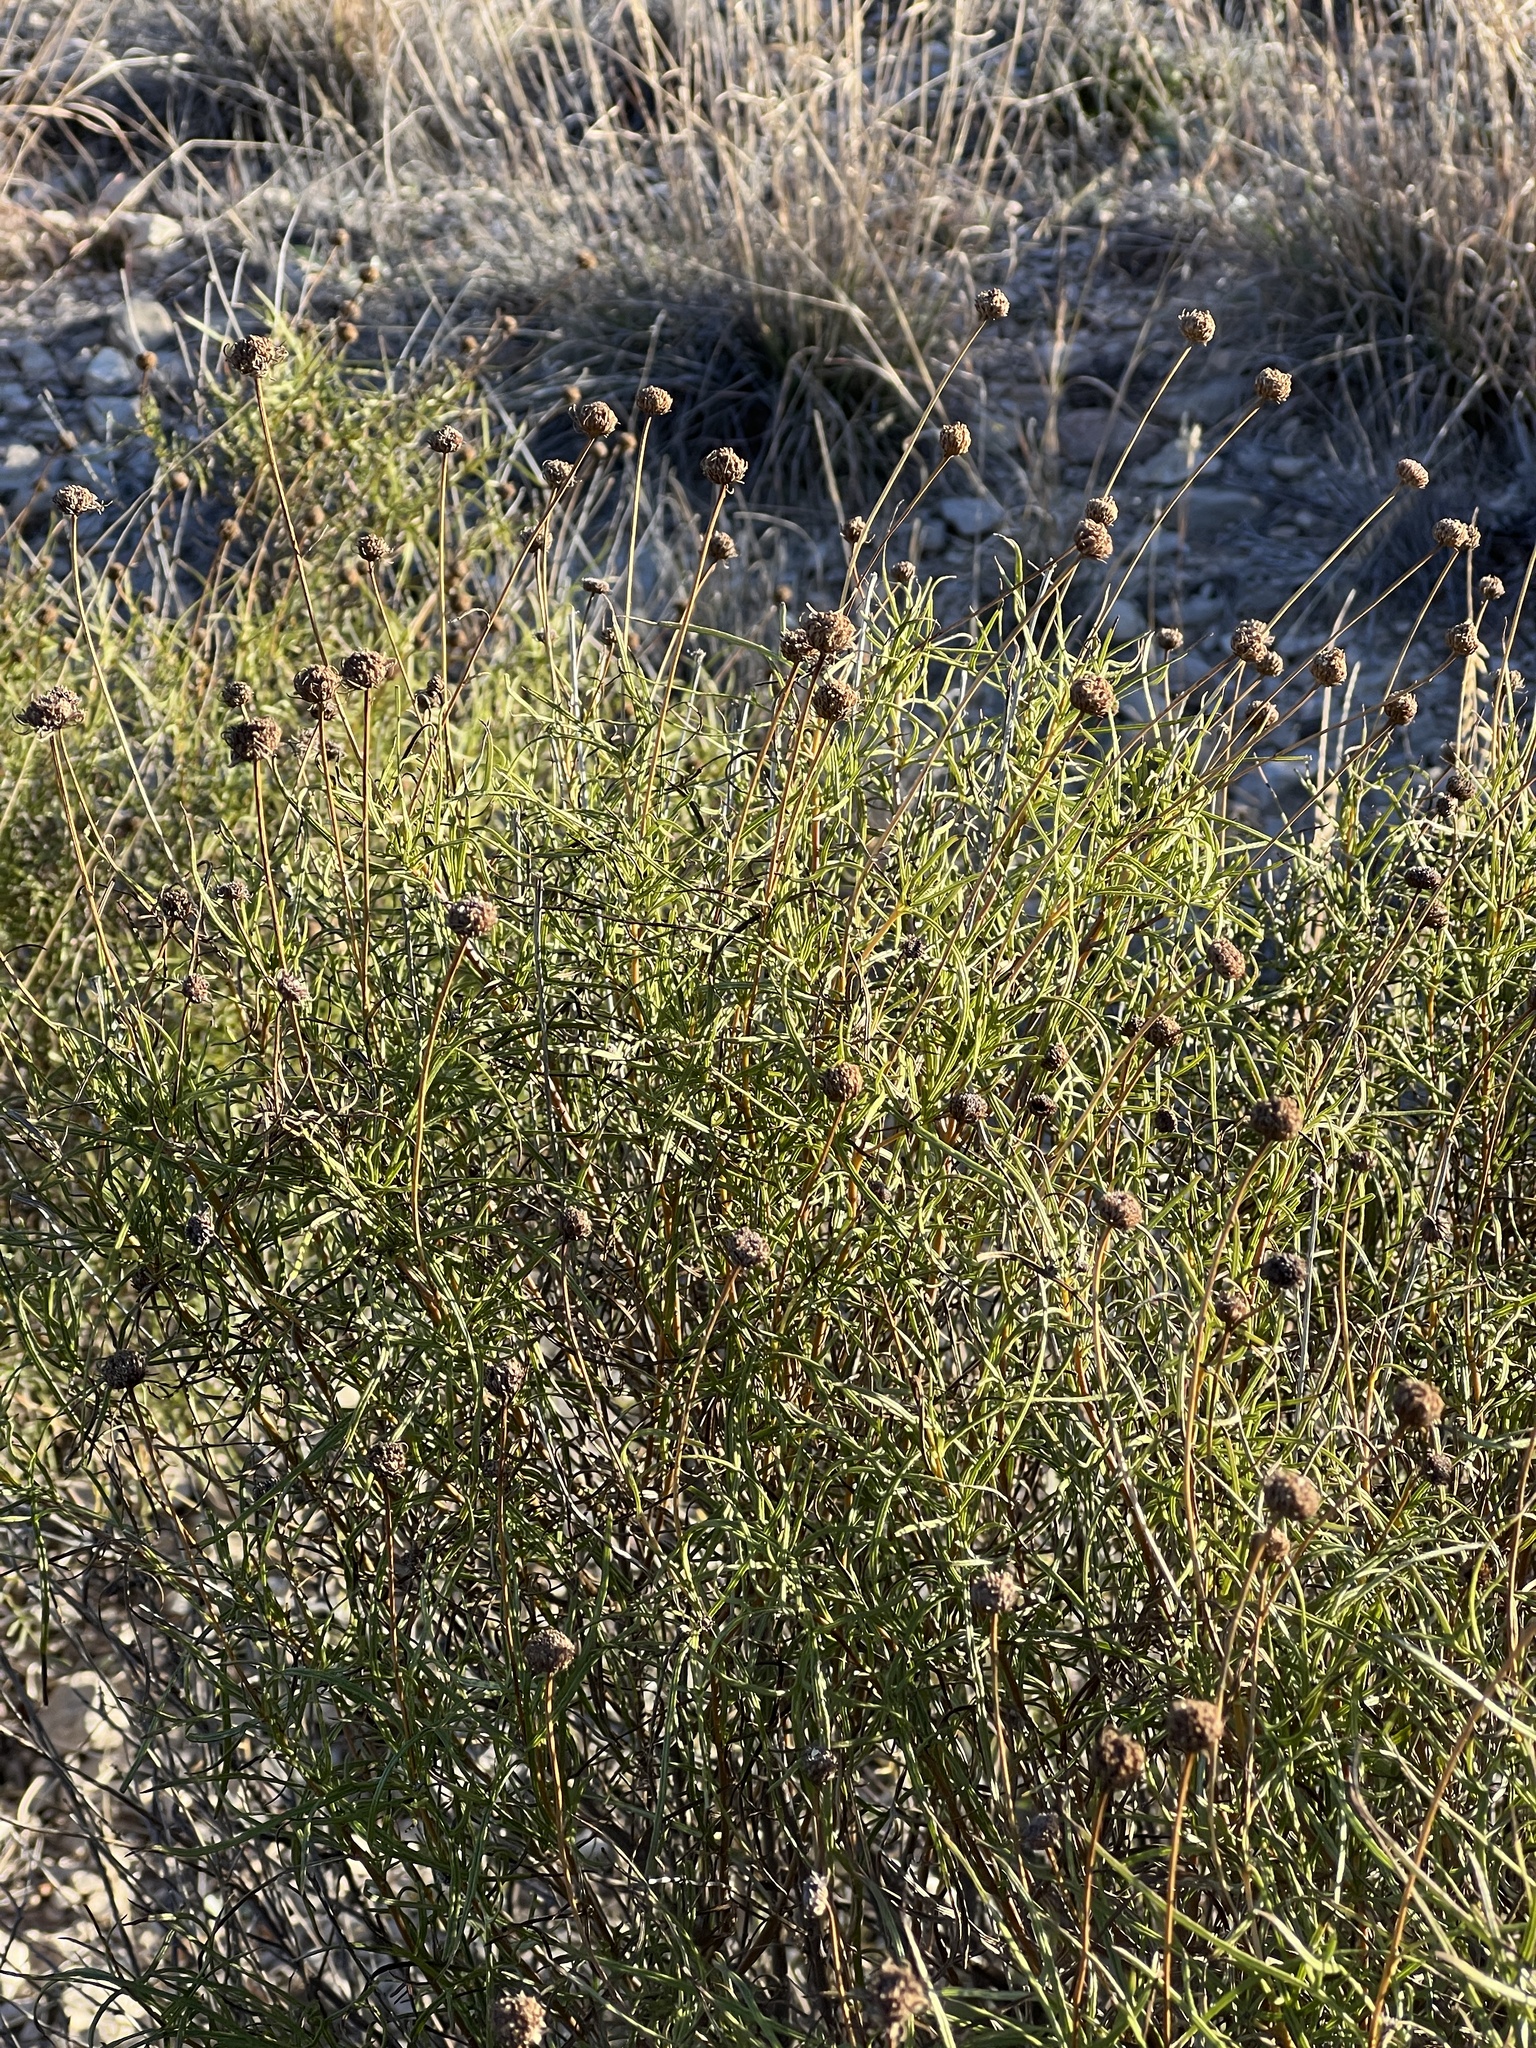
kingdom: Plantae
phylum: Tracheophyta
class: Magnoliopsida
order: Asterales
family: Asteraceae
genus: Sidneya
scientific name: Sidneya tenuifolia
